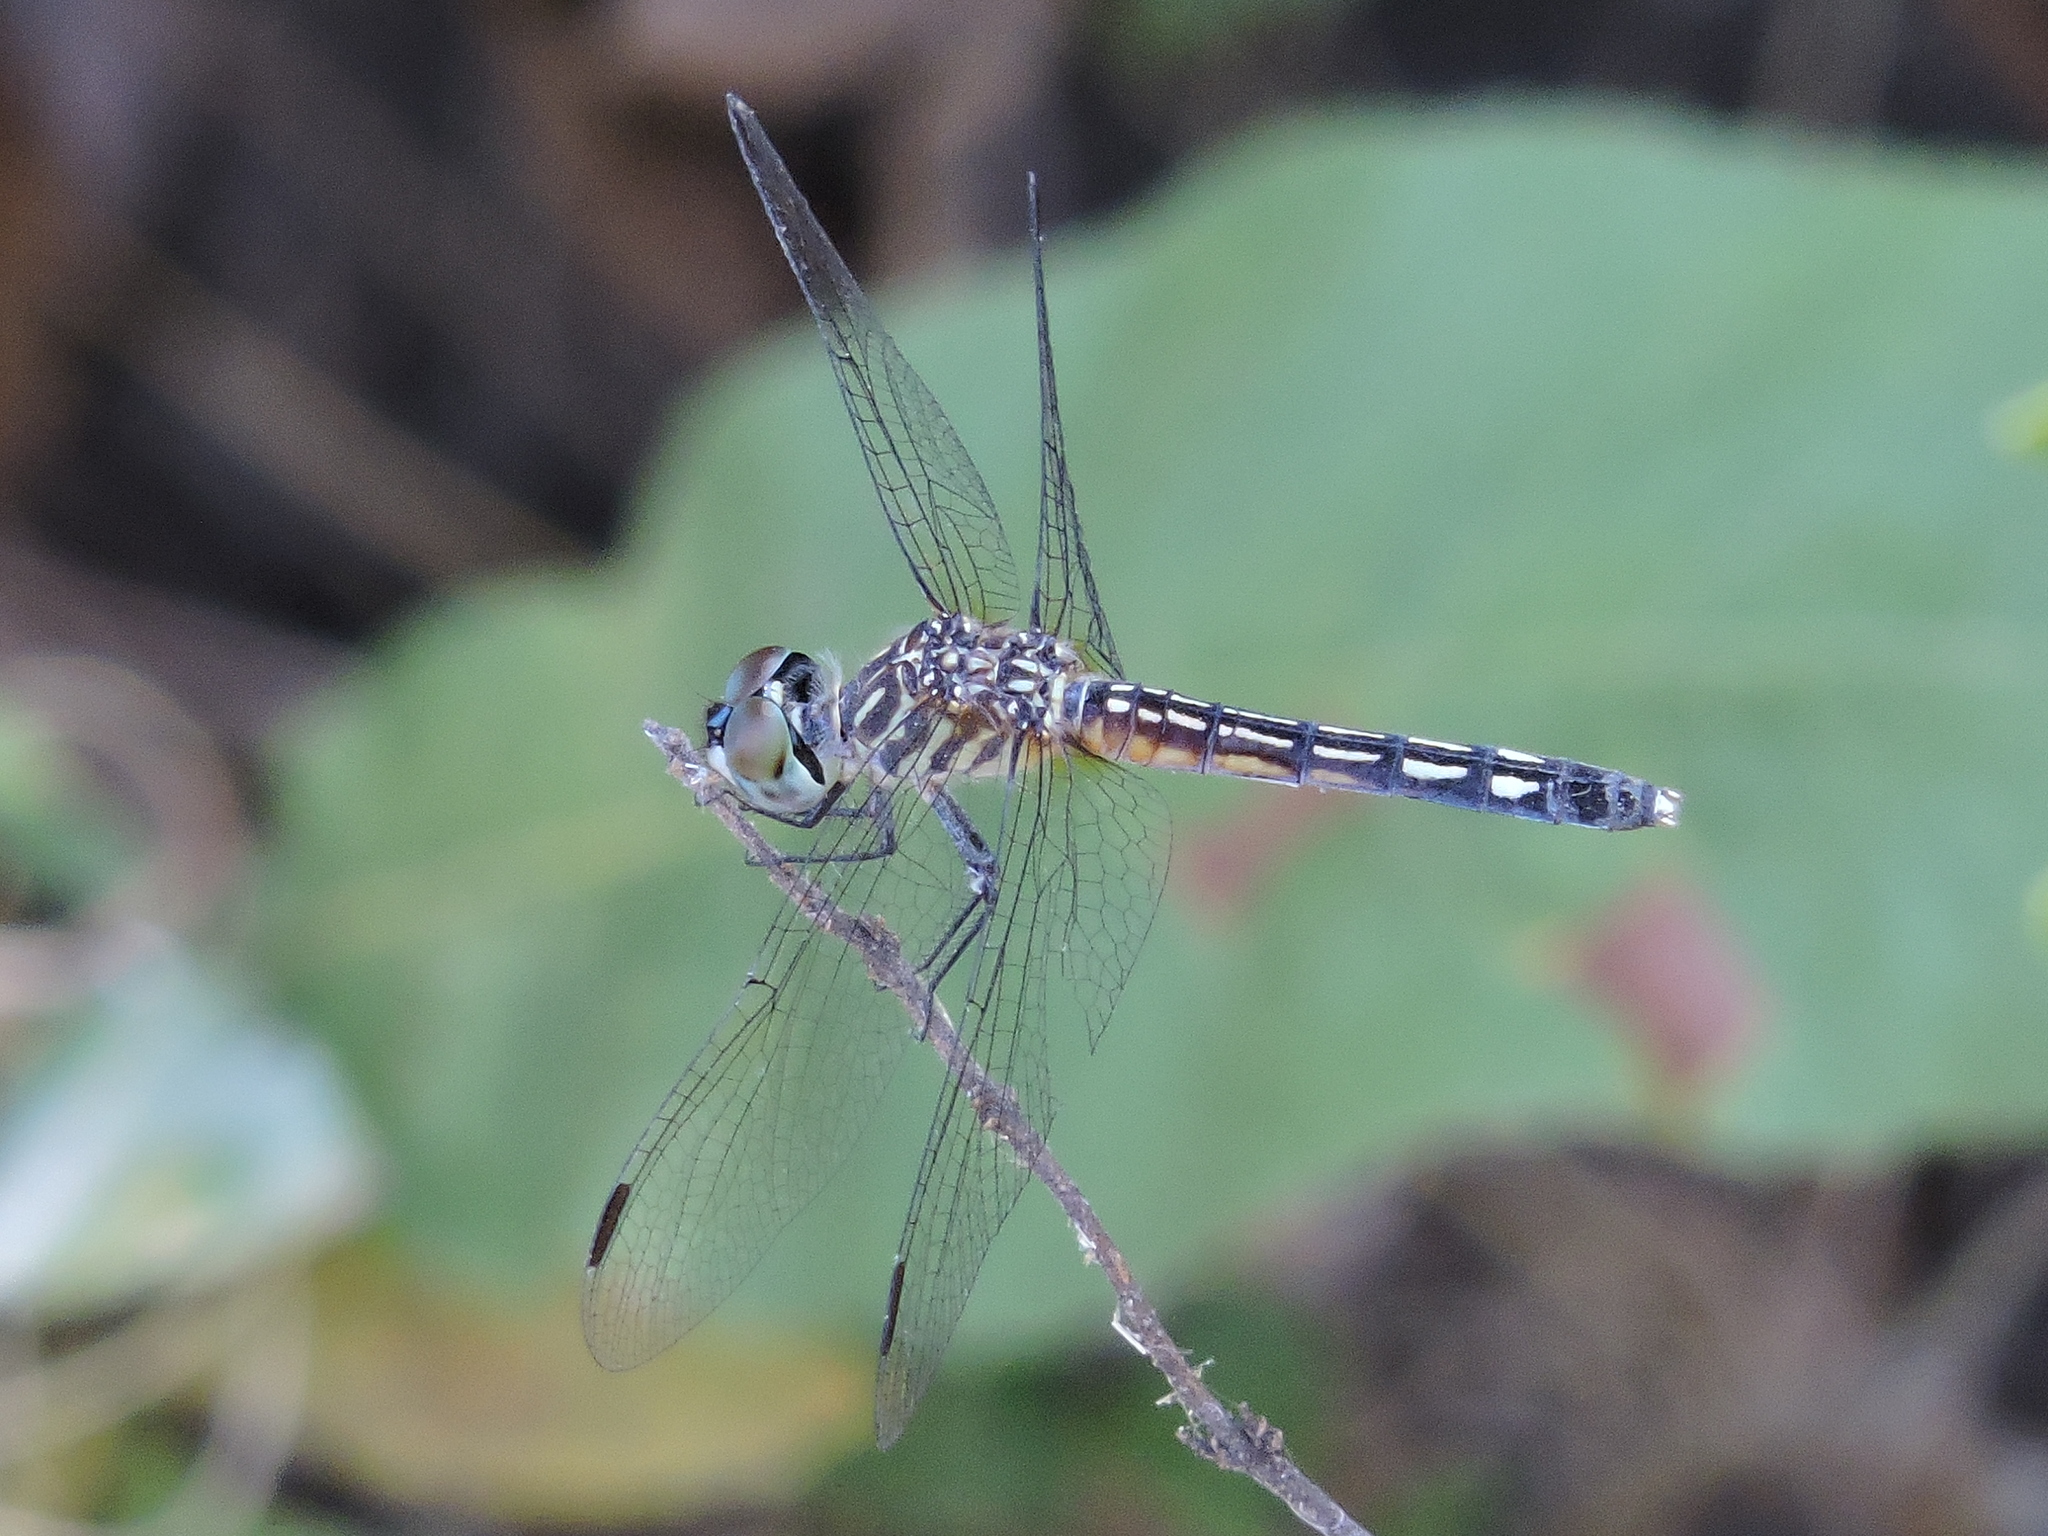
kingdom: Animalia
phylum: Arthropoda
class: Insecta
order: Odonata
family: Libellulidae
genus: Pachydiplax
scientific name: Pachydiplax longipennis
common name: Blue dasher
